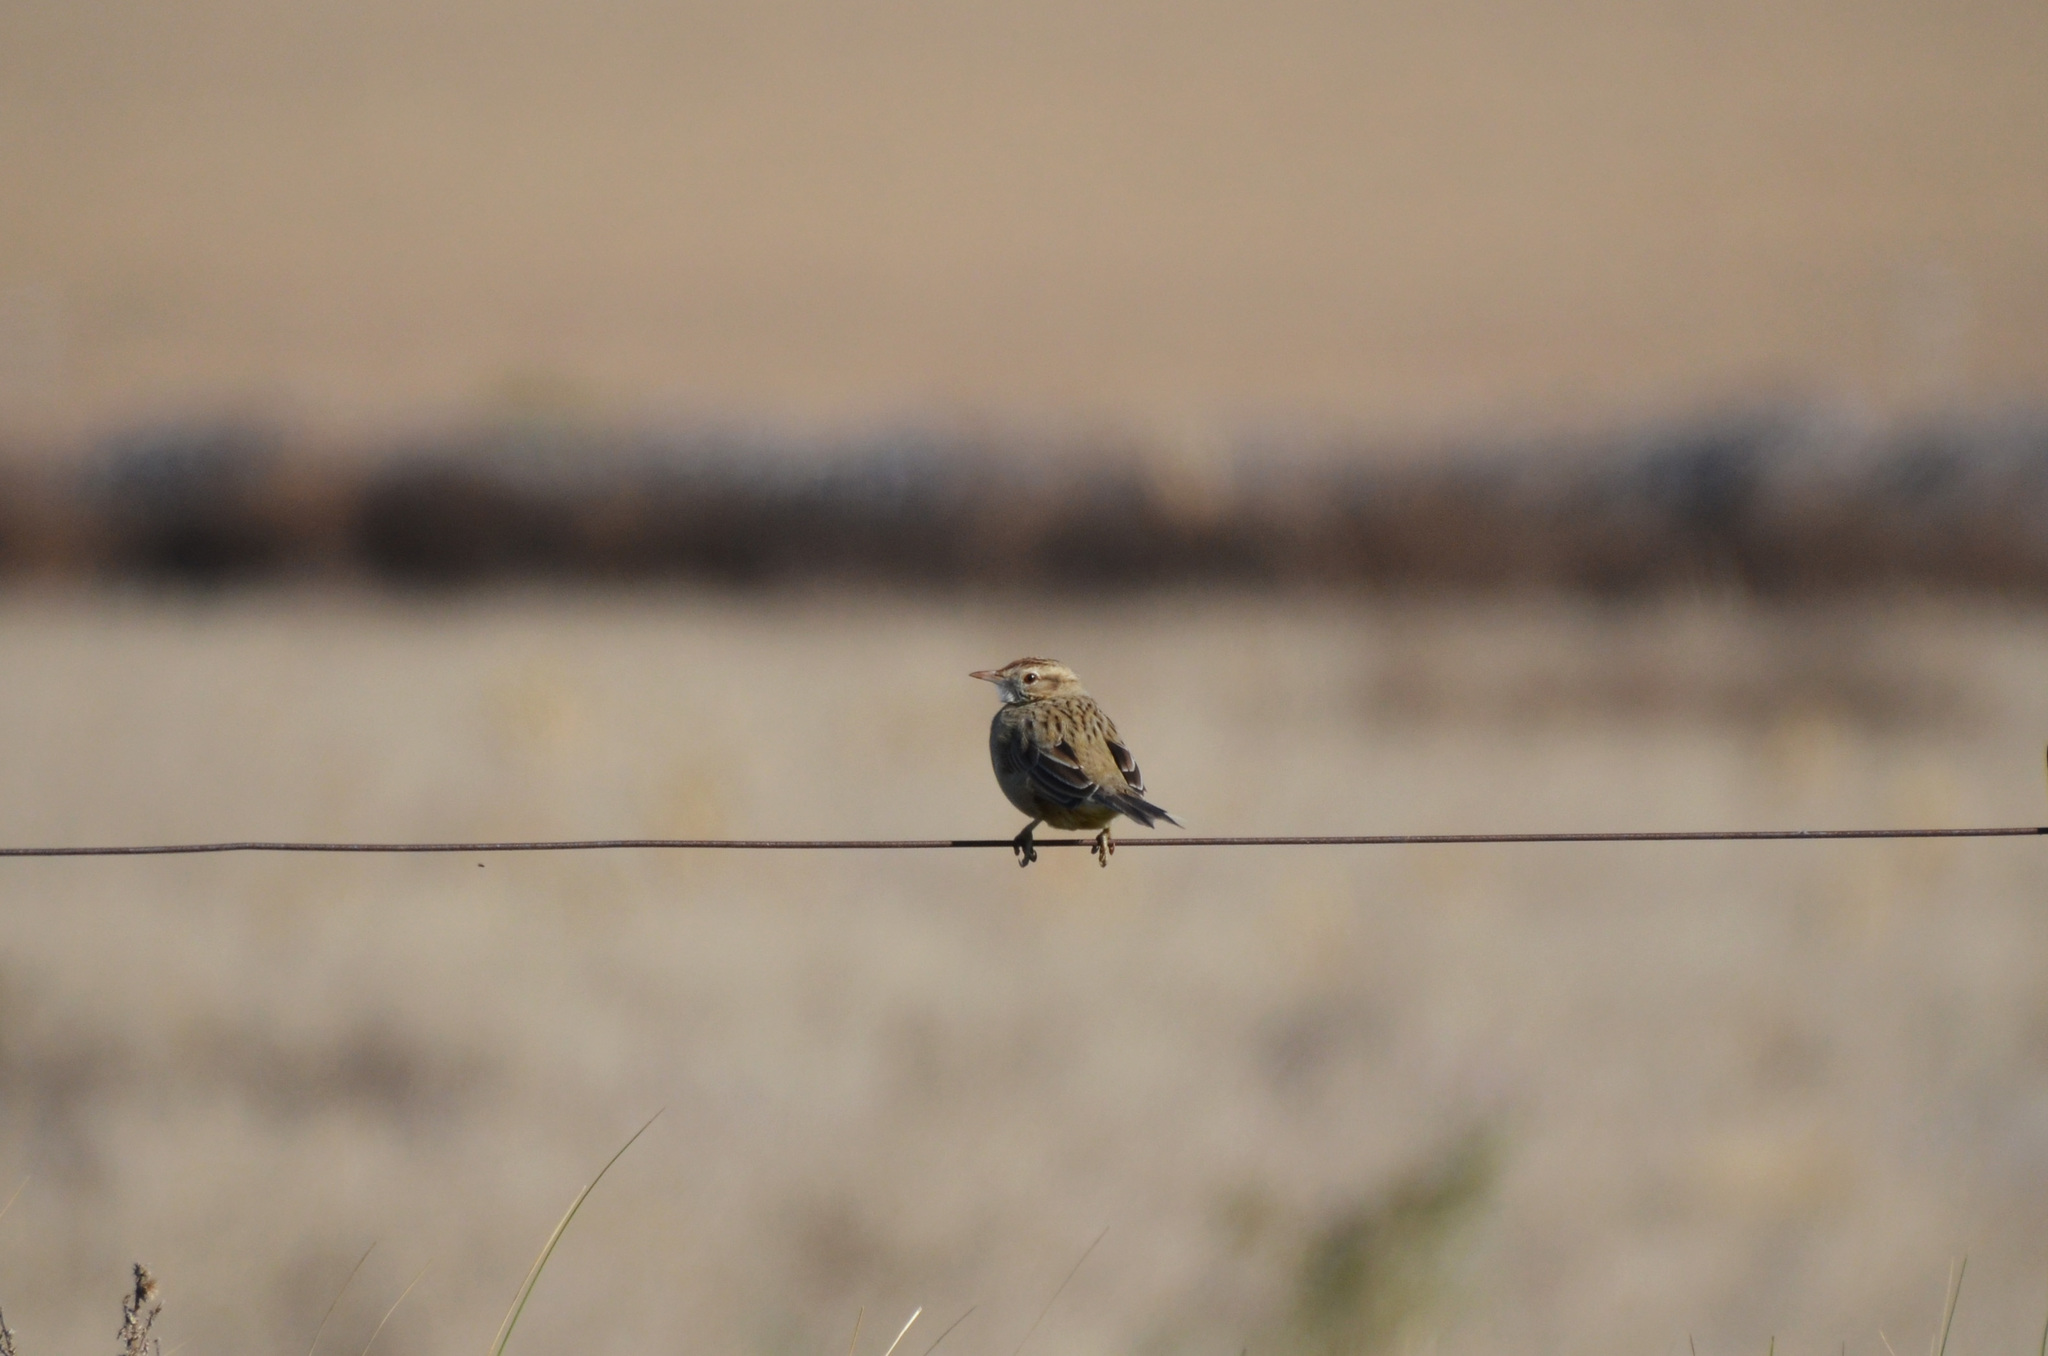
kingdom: Animalia
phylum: Chordata
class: Aves
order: Passeriformes
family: Furnariidae
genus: Anumbius
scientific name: Anumbius annumbi
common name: Firewood-gatherer
